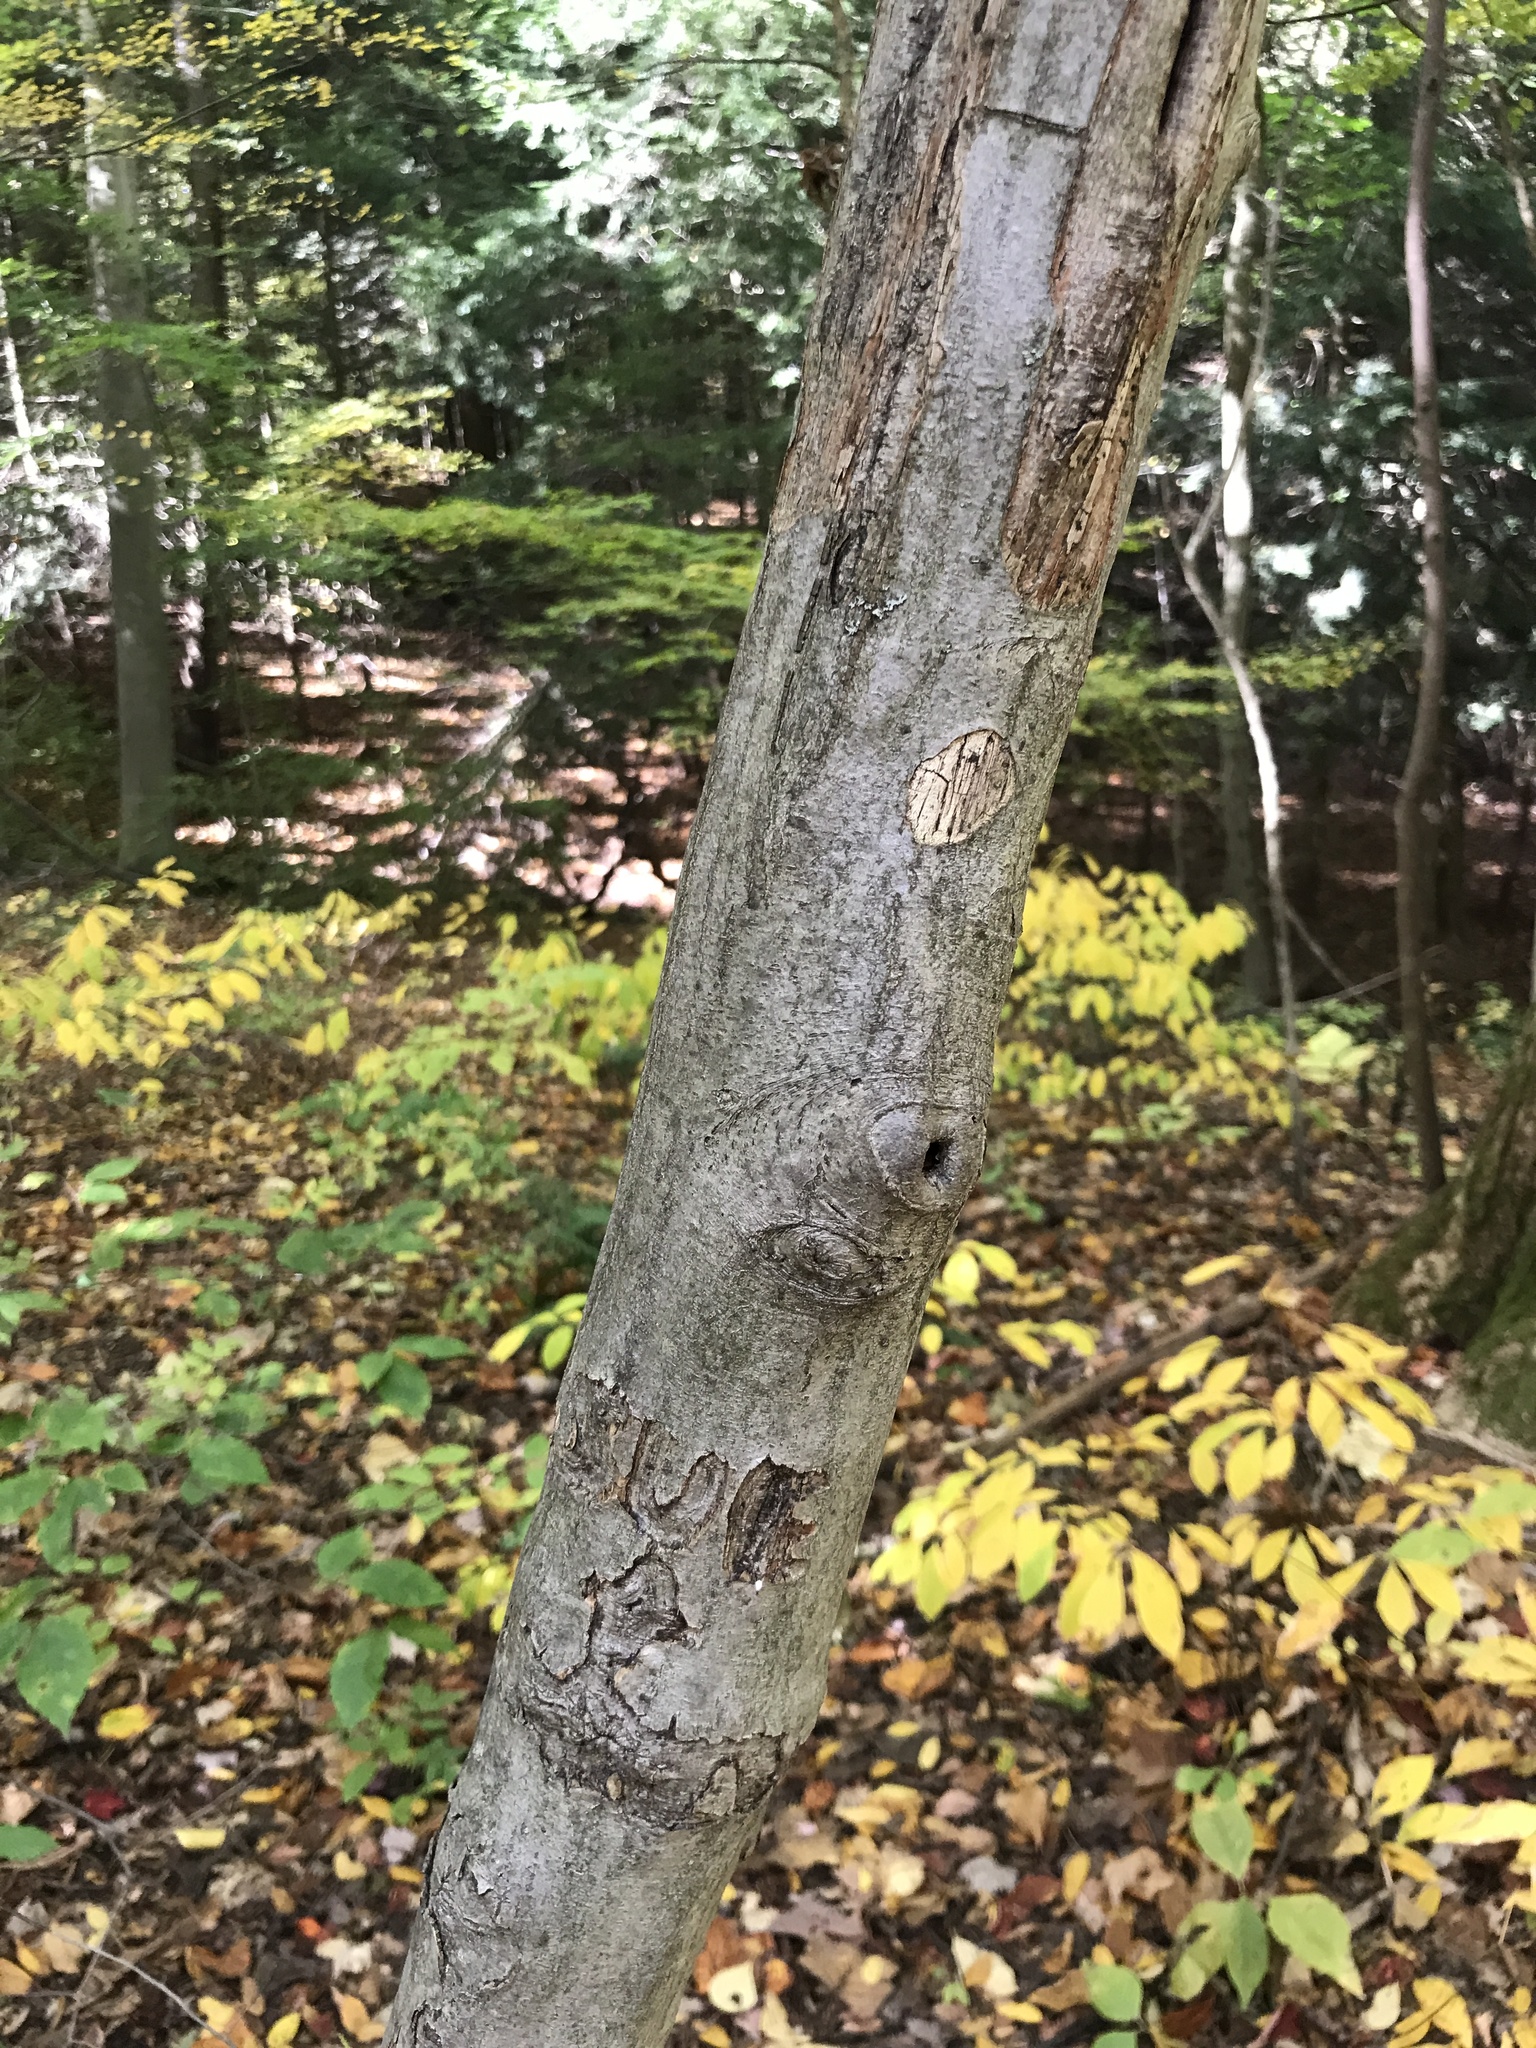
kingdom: Plantae
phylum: Tracheophyta
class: Magnoliopsida
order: Fagales
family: Betulaceae
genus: Carpinus
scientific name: Carpinus caroliniana
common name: American hornbeam
